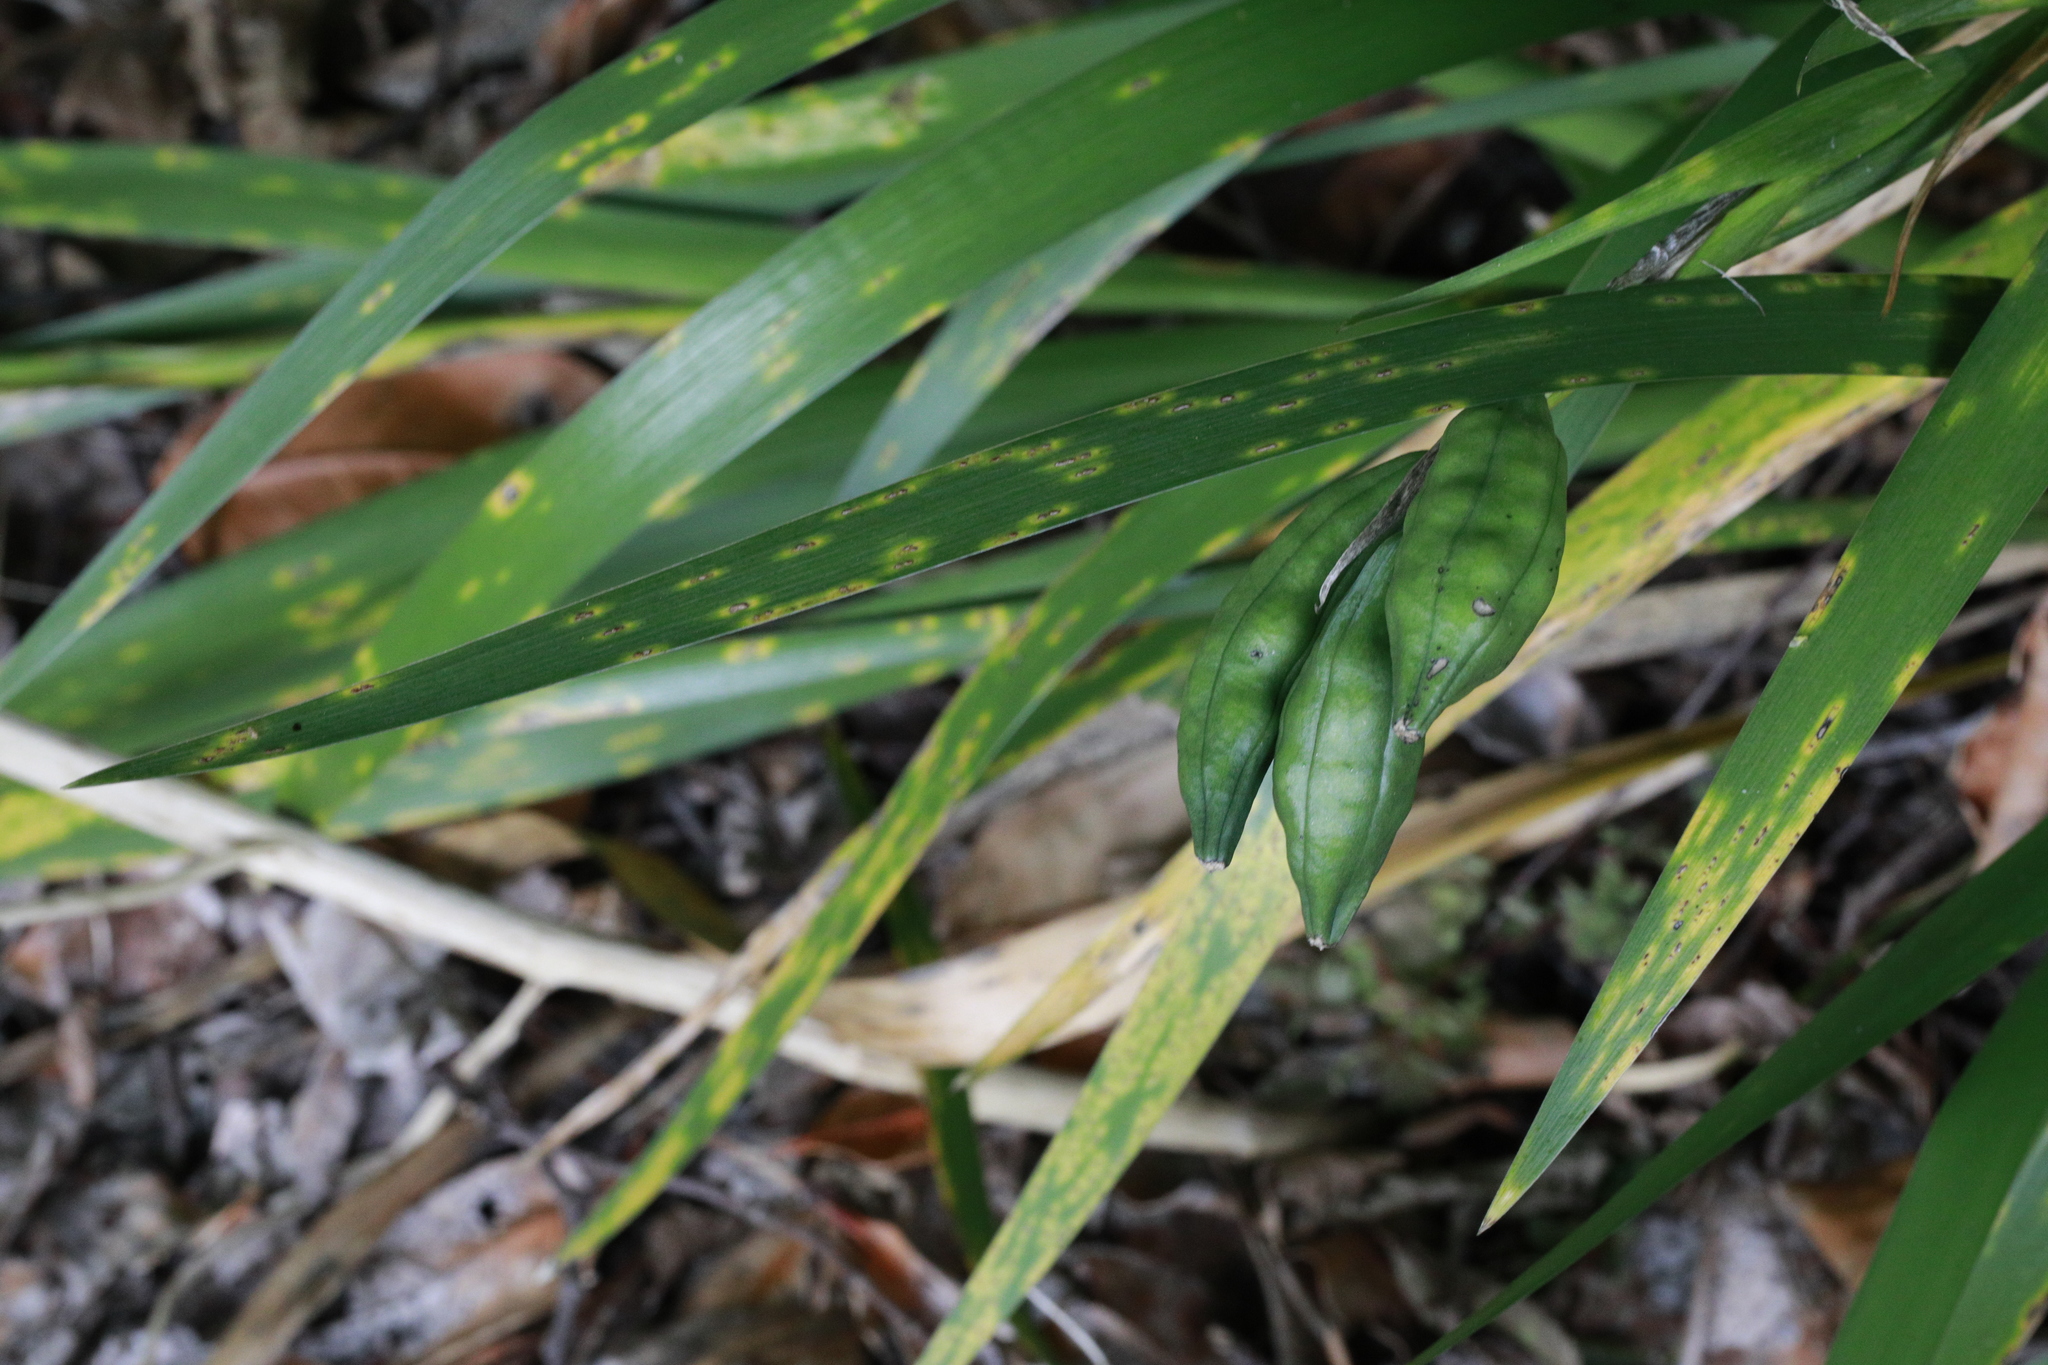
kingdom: Plantae
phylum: Tracheophyta
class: Liliopsida
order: Asparagales
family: Iridaceae
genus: Iris
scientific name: Iris foetidissima
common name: Stinking iris
